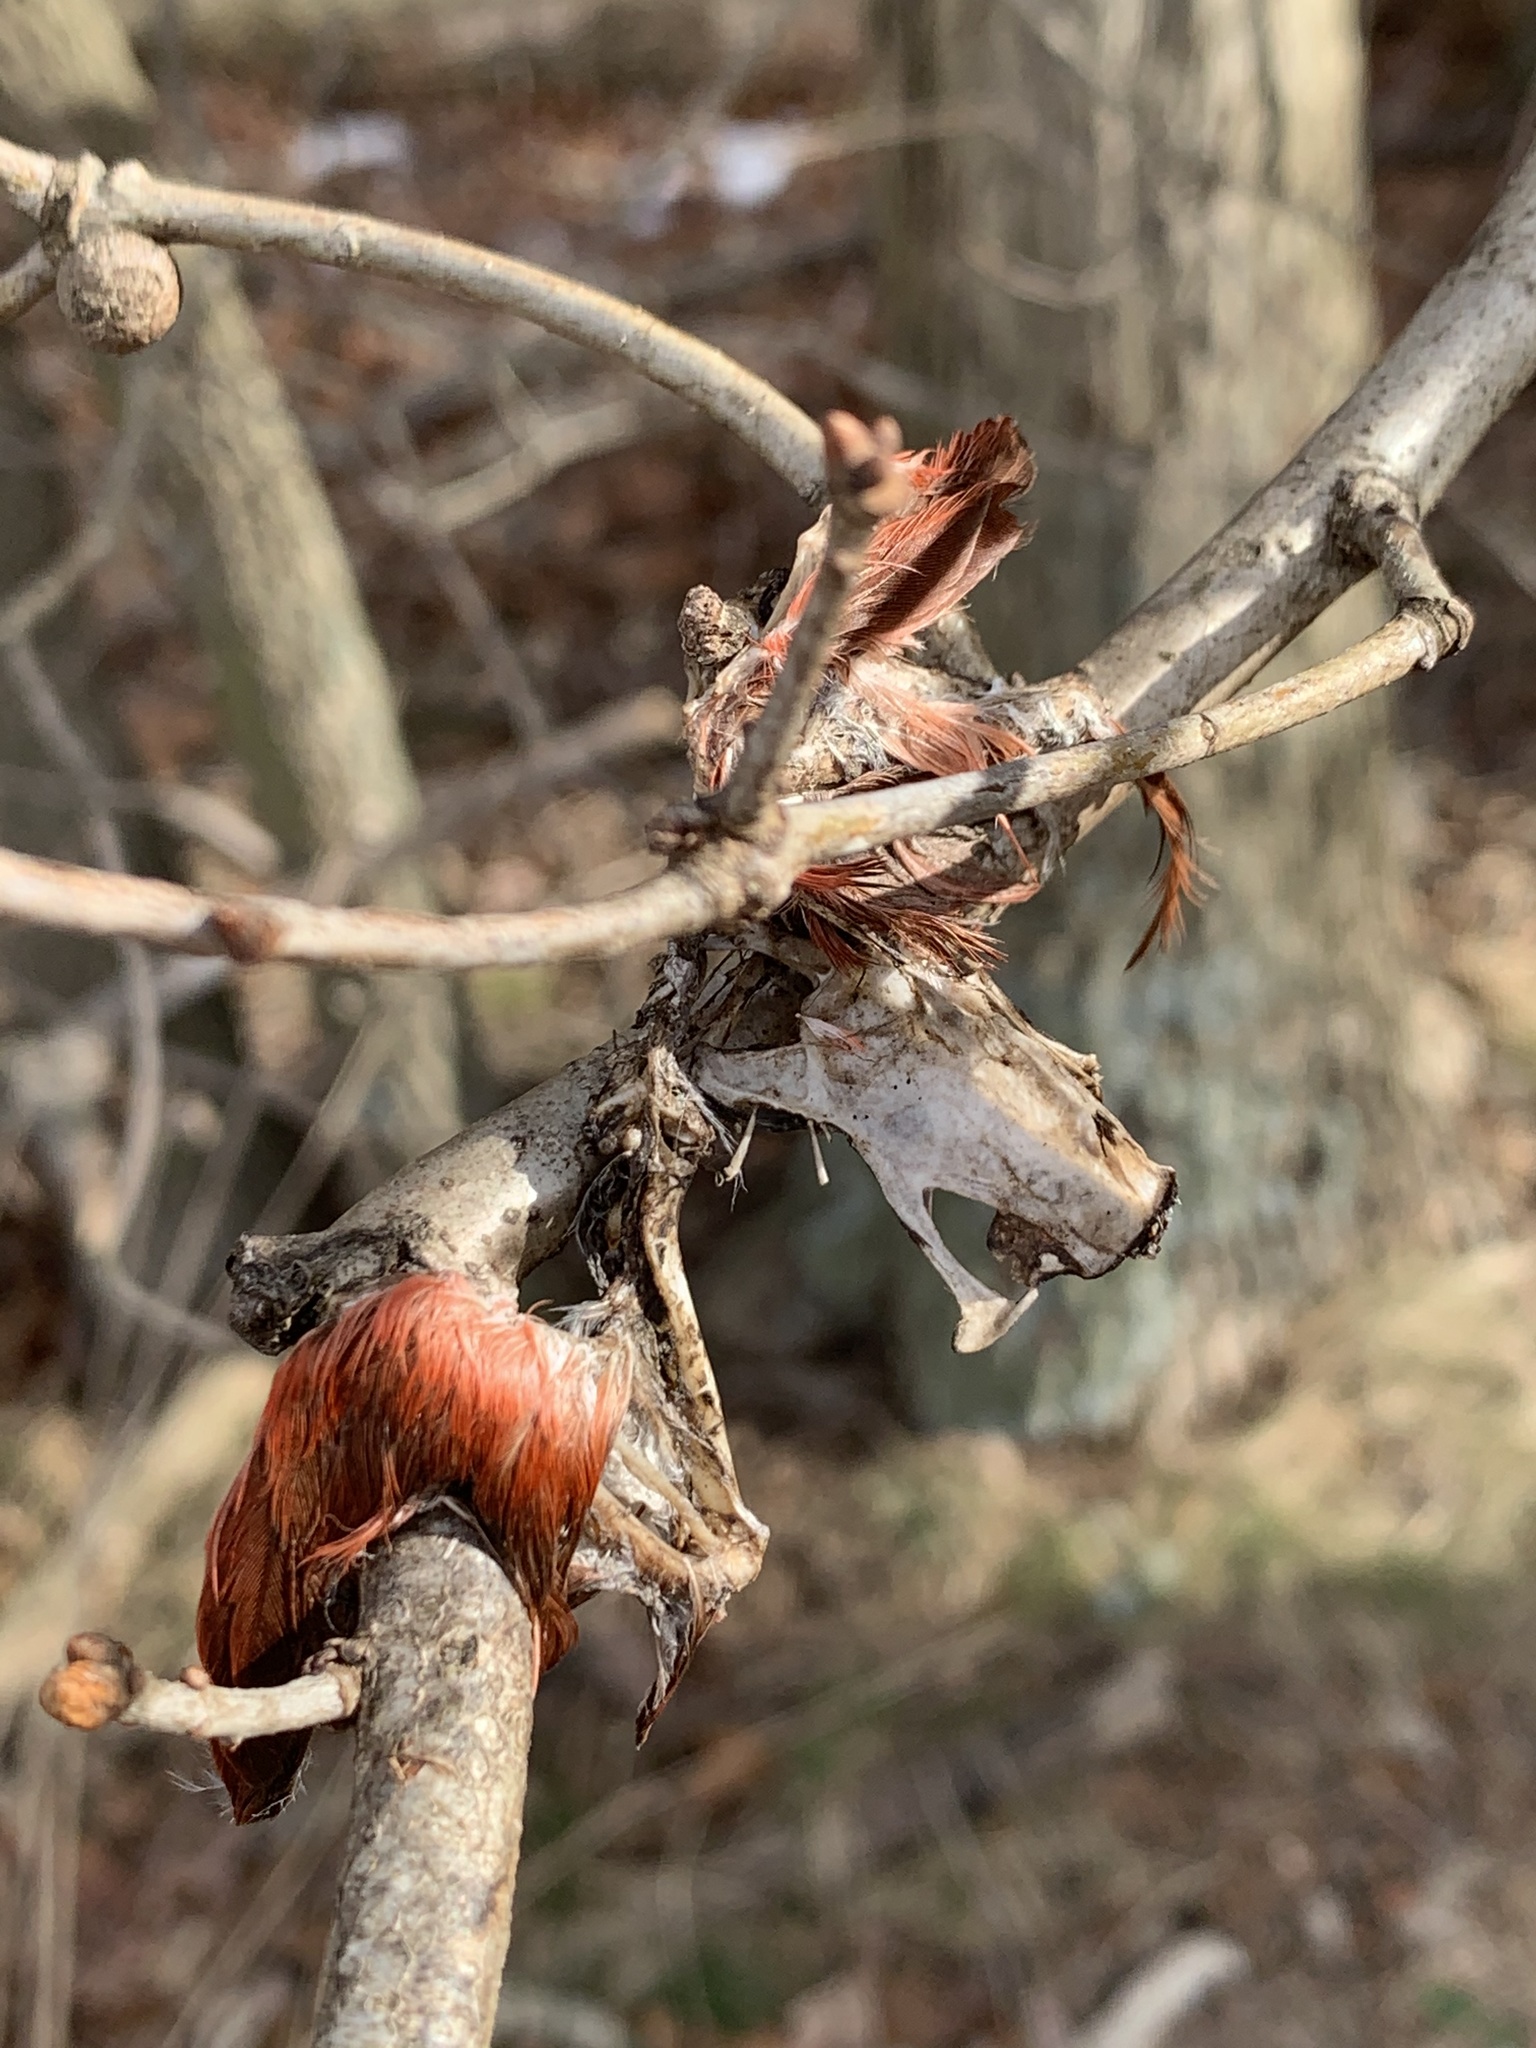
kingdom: Animalia
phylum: Chordata
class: Aves
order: Passeriformes
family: Cardinalidae
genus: Cardinalis
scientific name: Cardinalis cardinalis
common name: Northern cardinal
